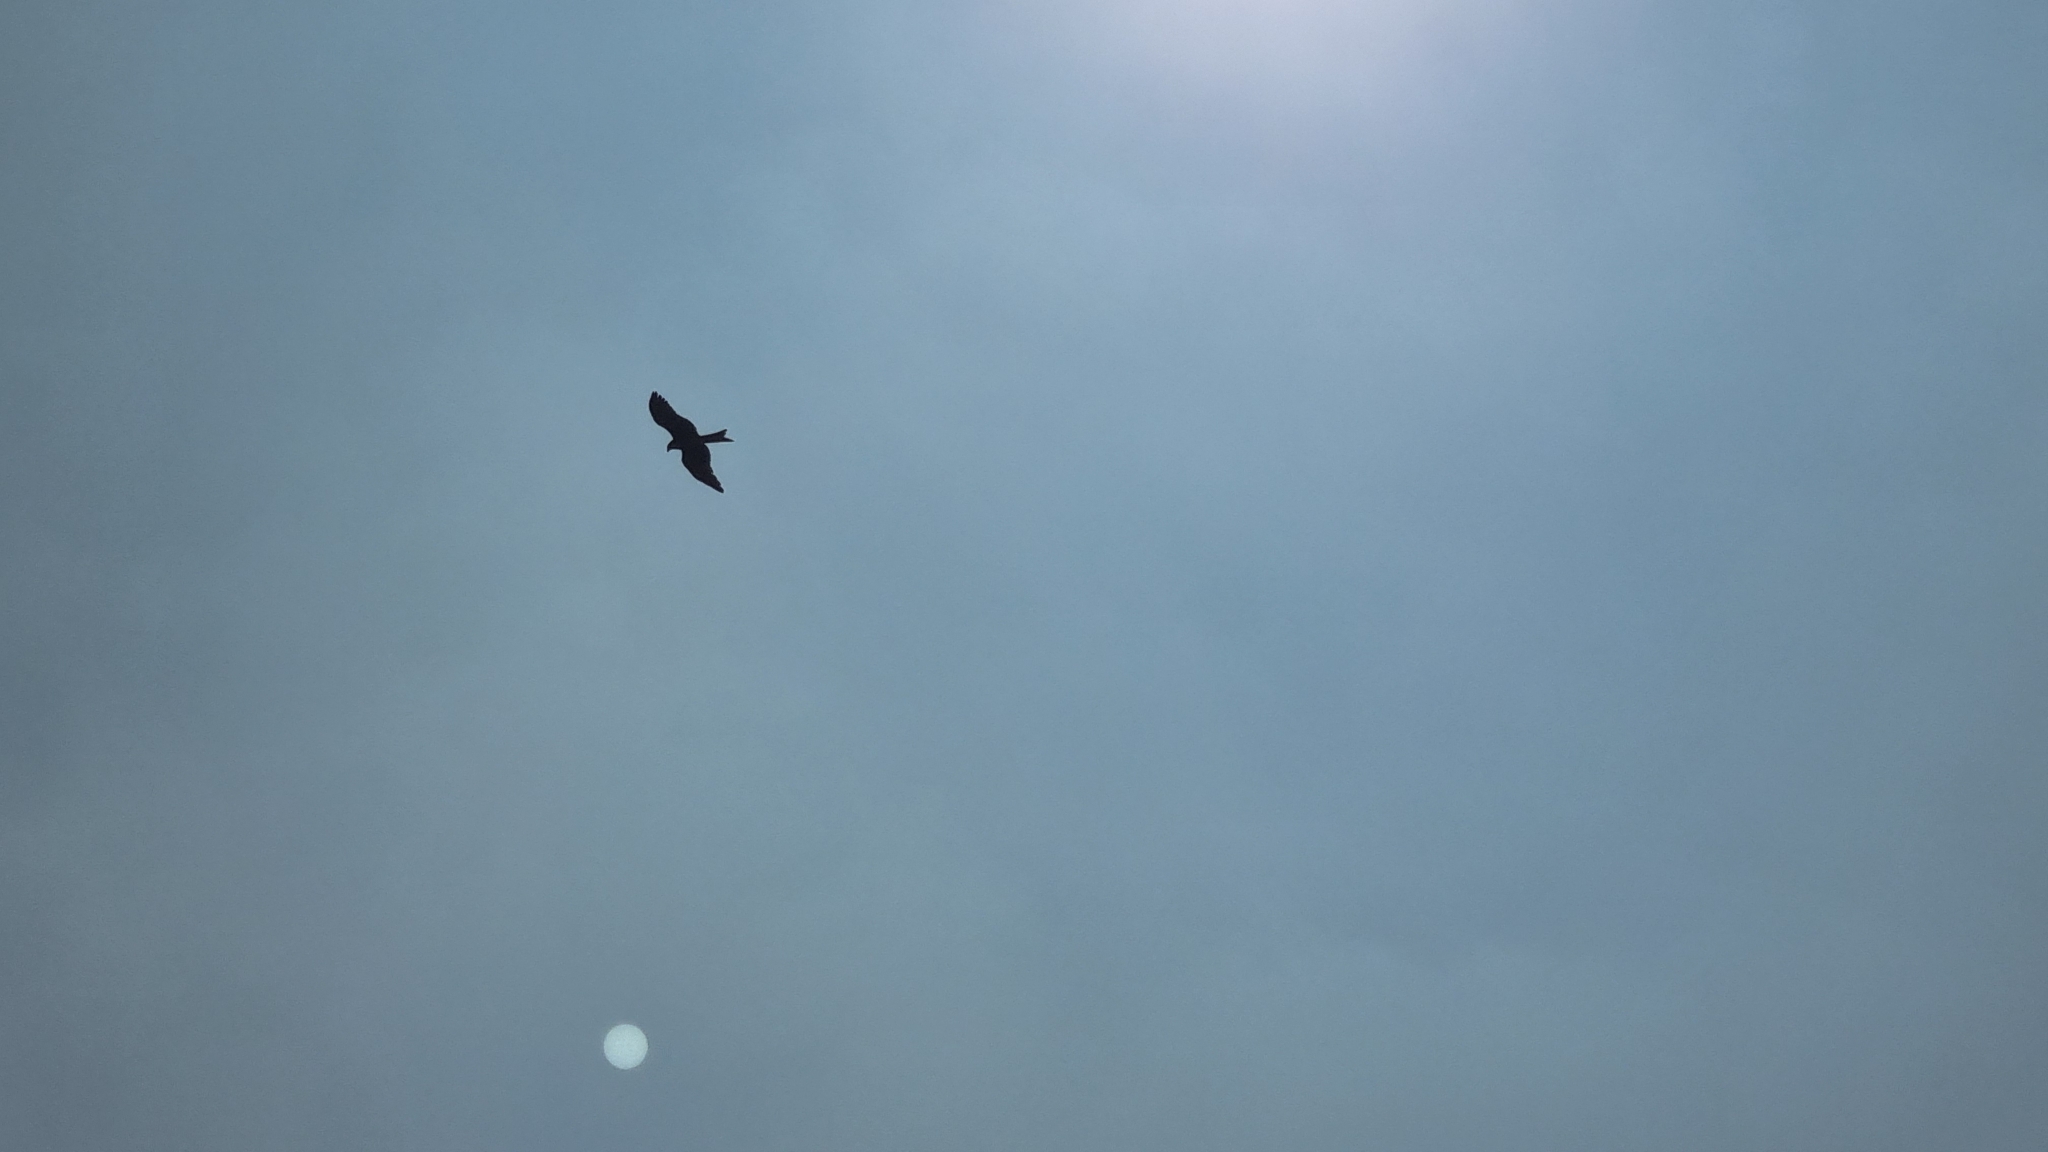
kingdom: Animalia
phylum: Chordata
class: Aves
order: Accipitriformes
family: Accipitridae
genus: Milvus
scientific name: Milvus migrans
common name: Black kite
